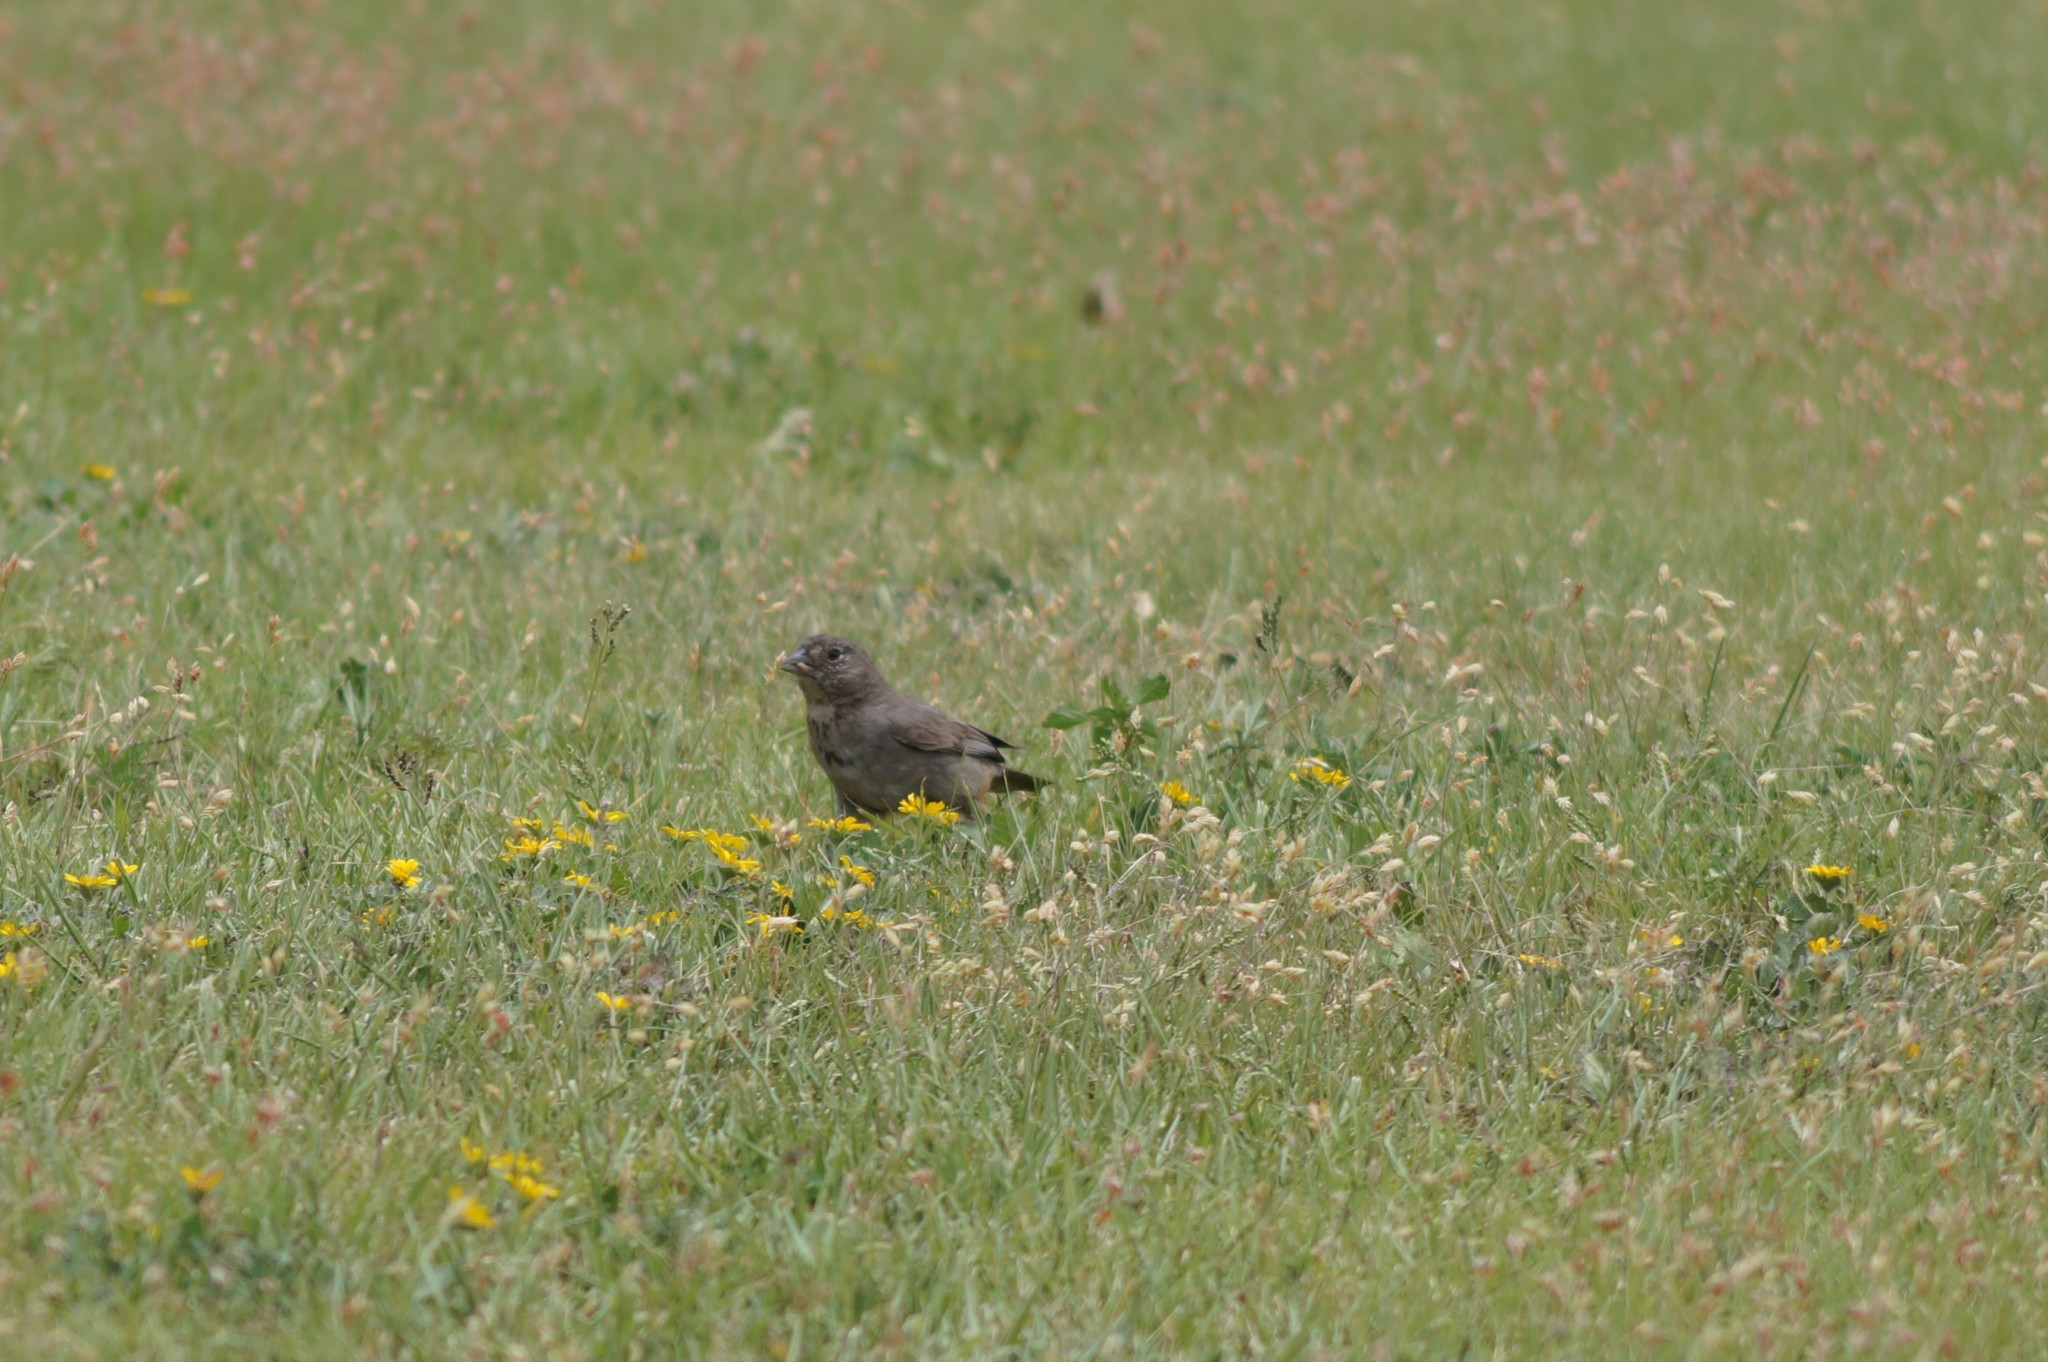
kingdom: Animalia
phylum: Chordata
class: Aves
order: Passeriformes
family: Passerellidae
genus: Melozone
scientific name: Melozone fusca
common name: Canyon towhee
